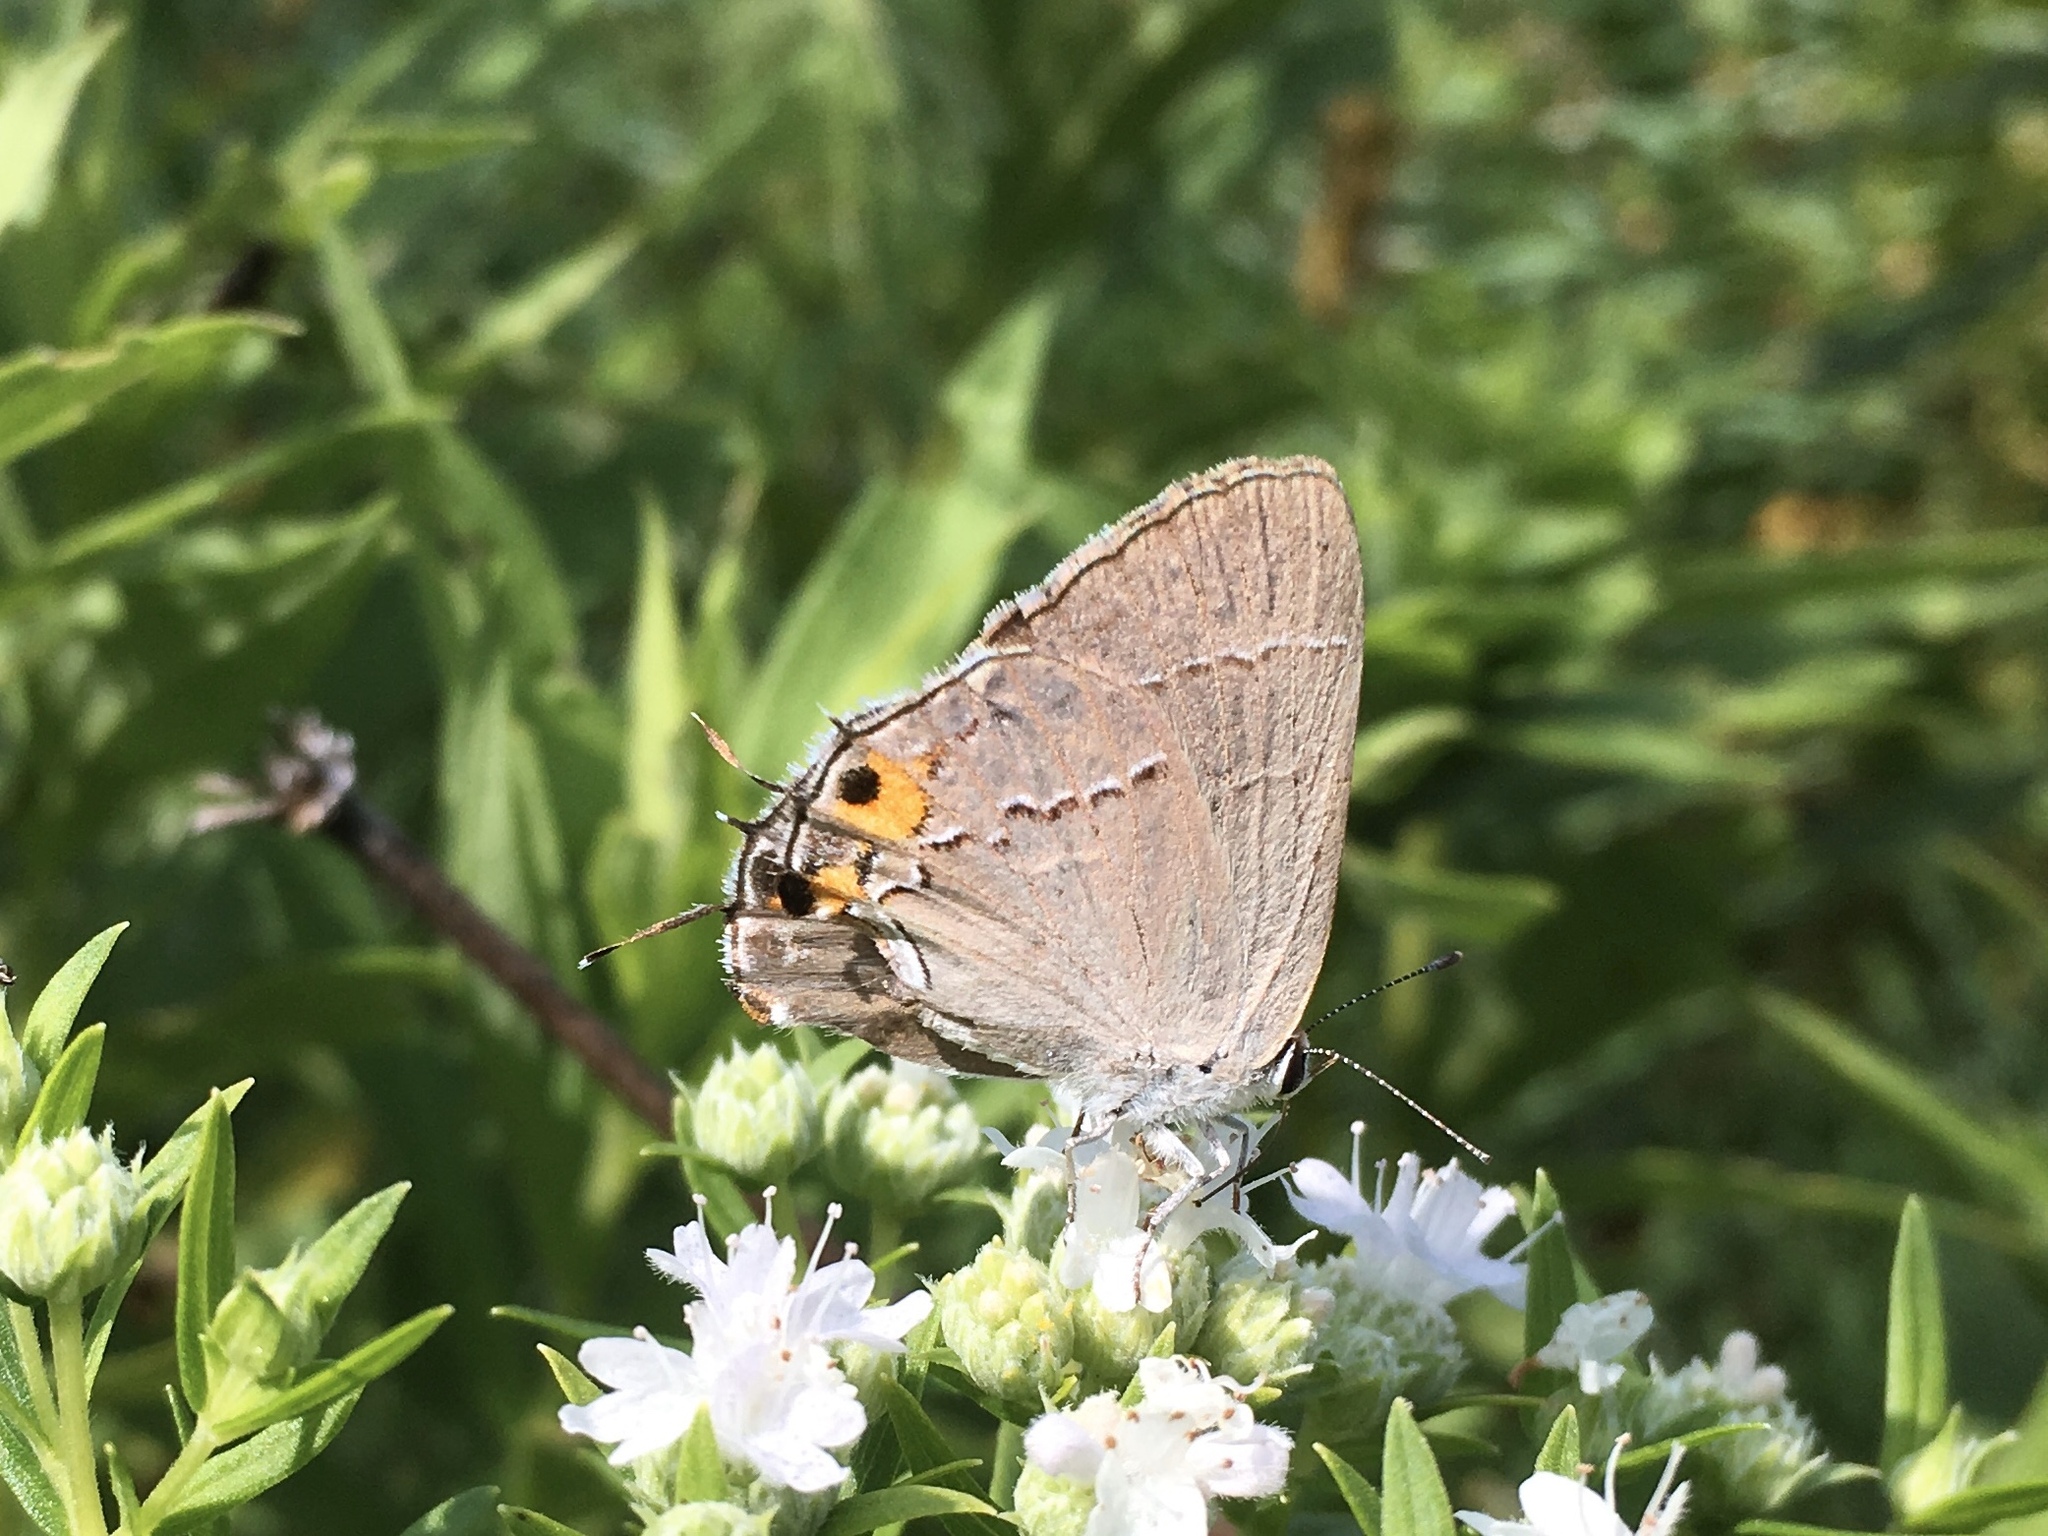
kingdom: Animalia
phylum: Arthropoda
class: Insecta
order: Lepidoptera
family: Lycaenidae
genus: Strymon
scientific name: Strymon melinus
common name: Gray hairstreak
